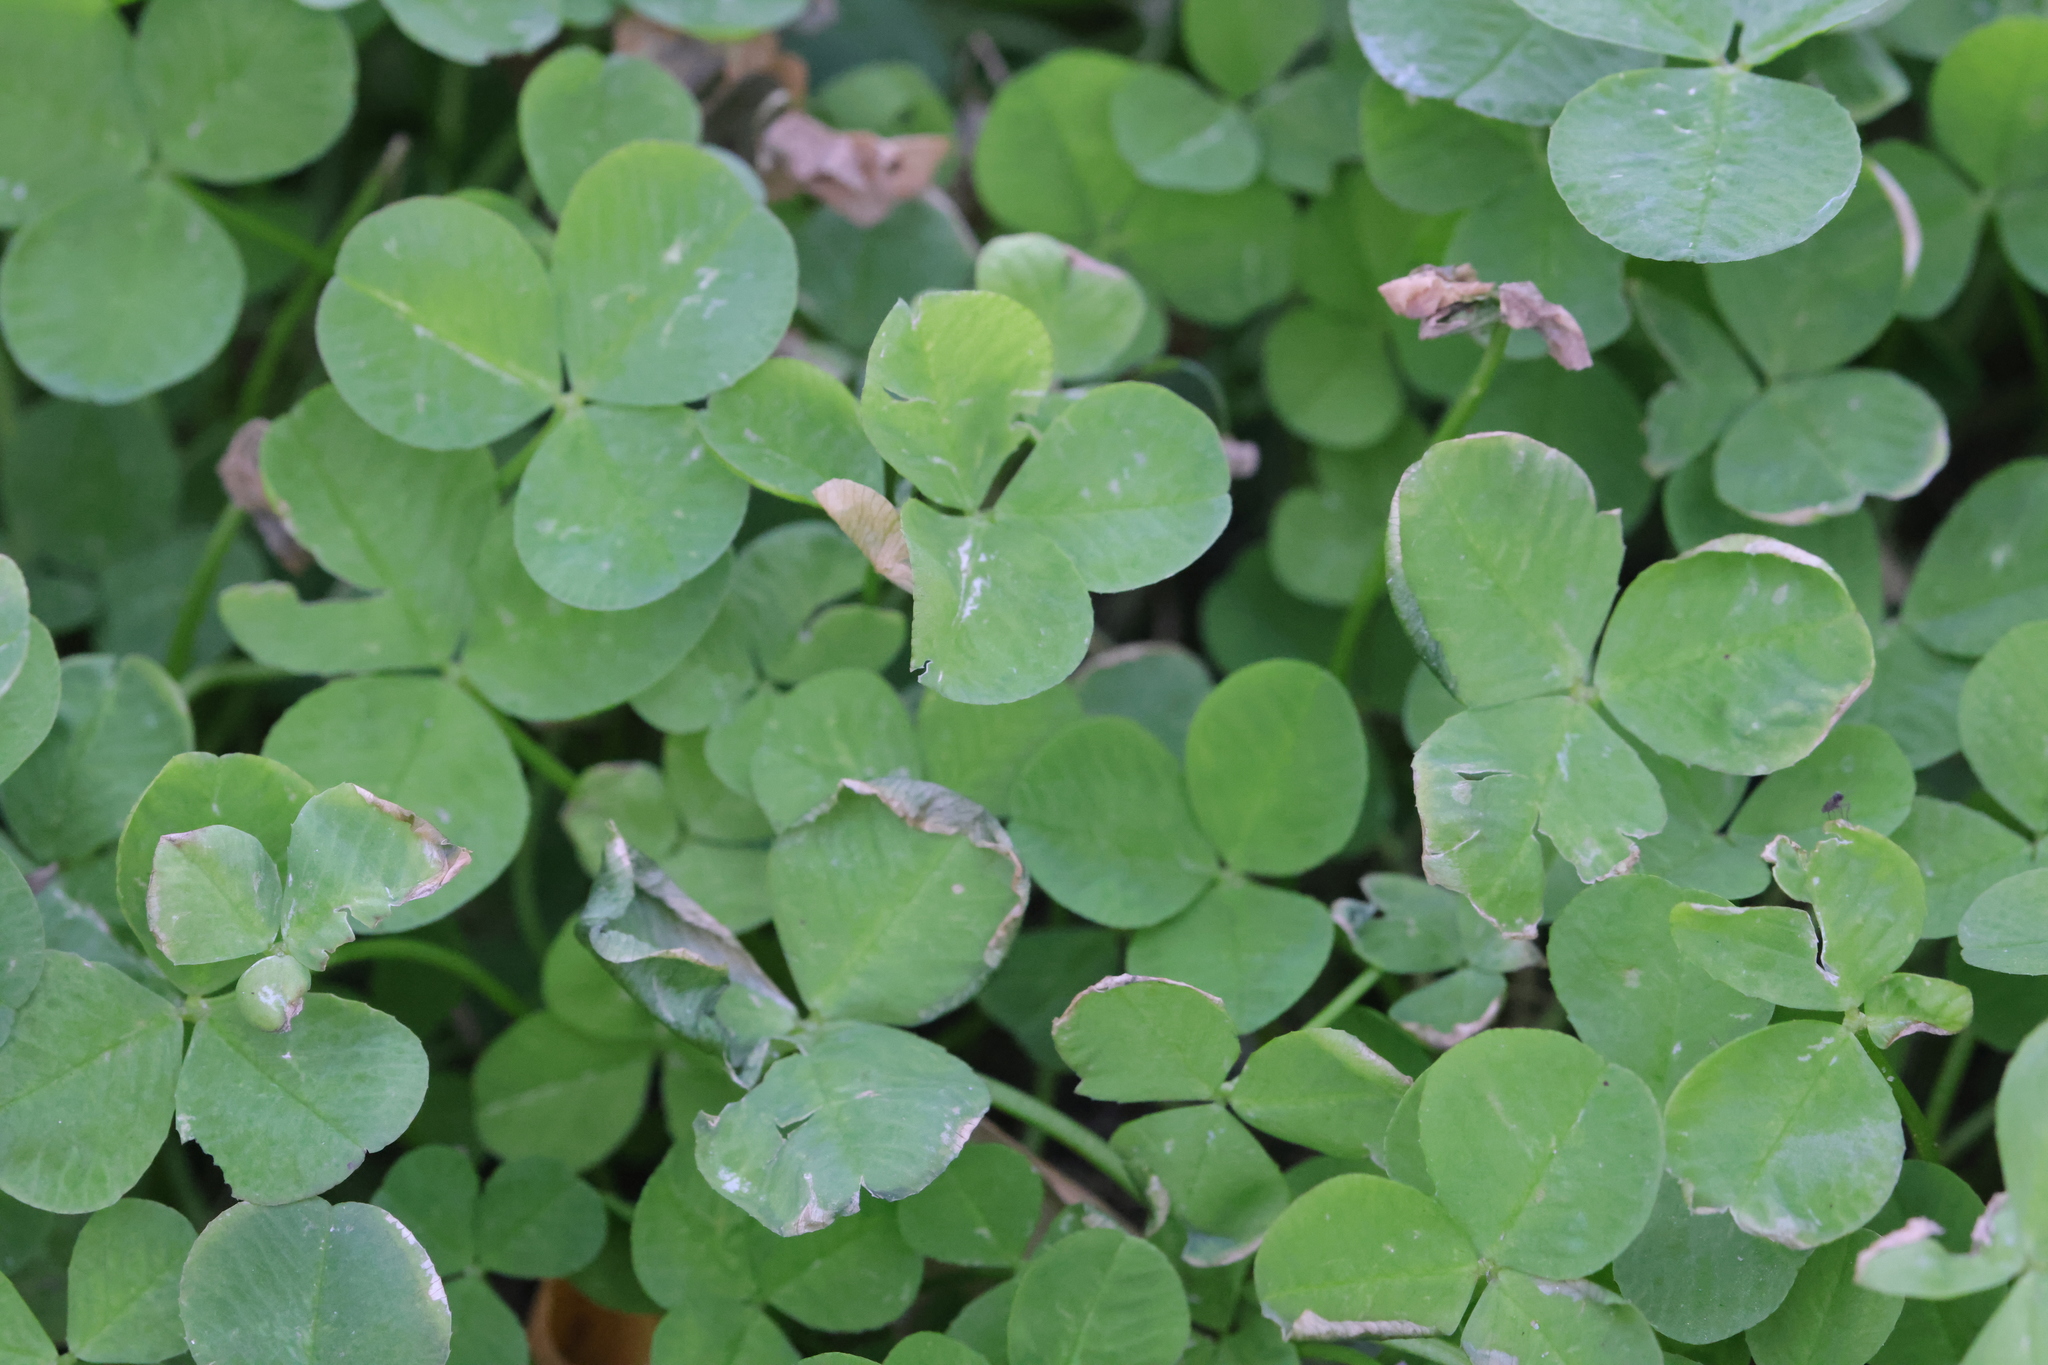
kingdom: Plantae
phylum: Tracheophyta
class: Magnoliopsida
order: Fabales
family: Fabaceae
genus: Trifolium
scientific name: Trifolium repens
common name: White clover
